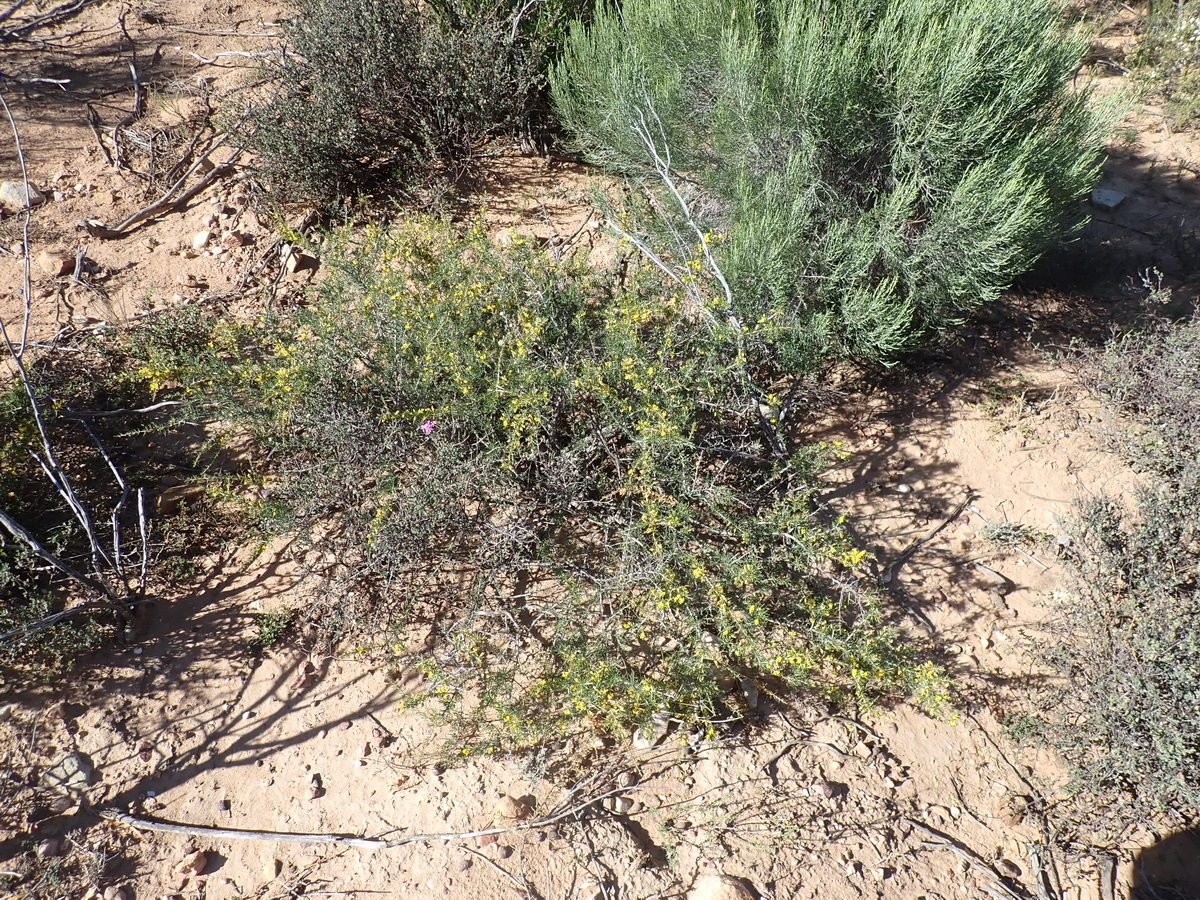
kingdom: Plantae
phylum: Tracheophyta
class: Magnoliopsida
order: Fabales
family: Fabaceae
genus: Aspalathus
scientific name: Aspalathus spinosa
